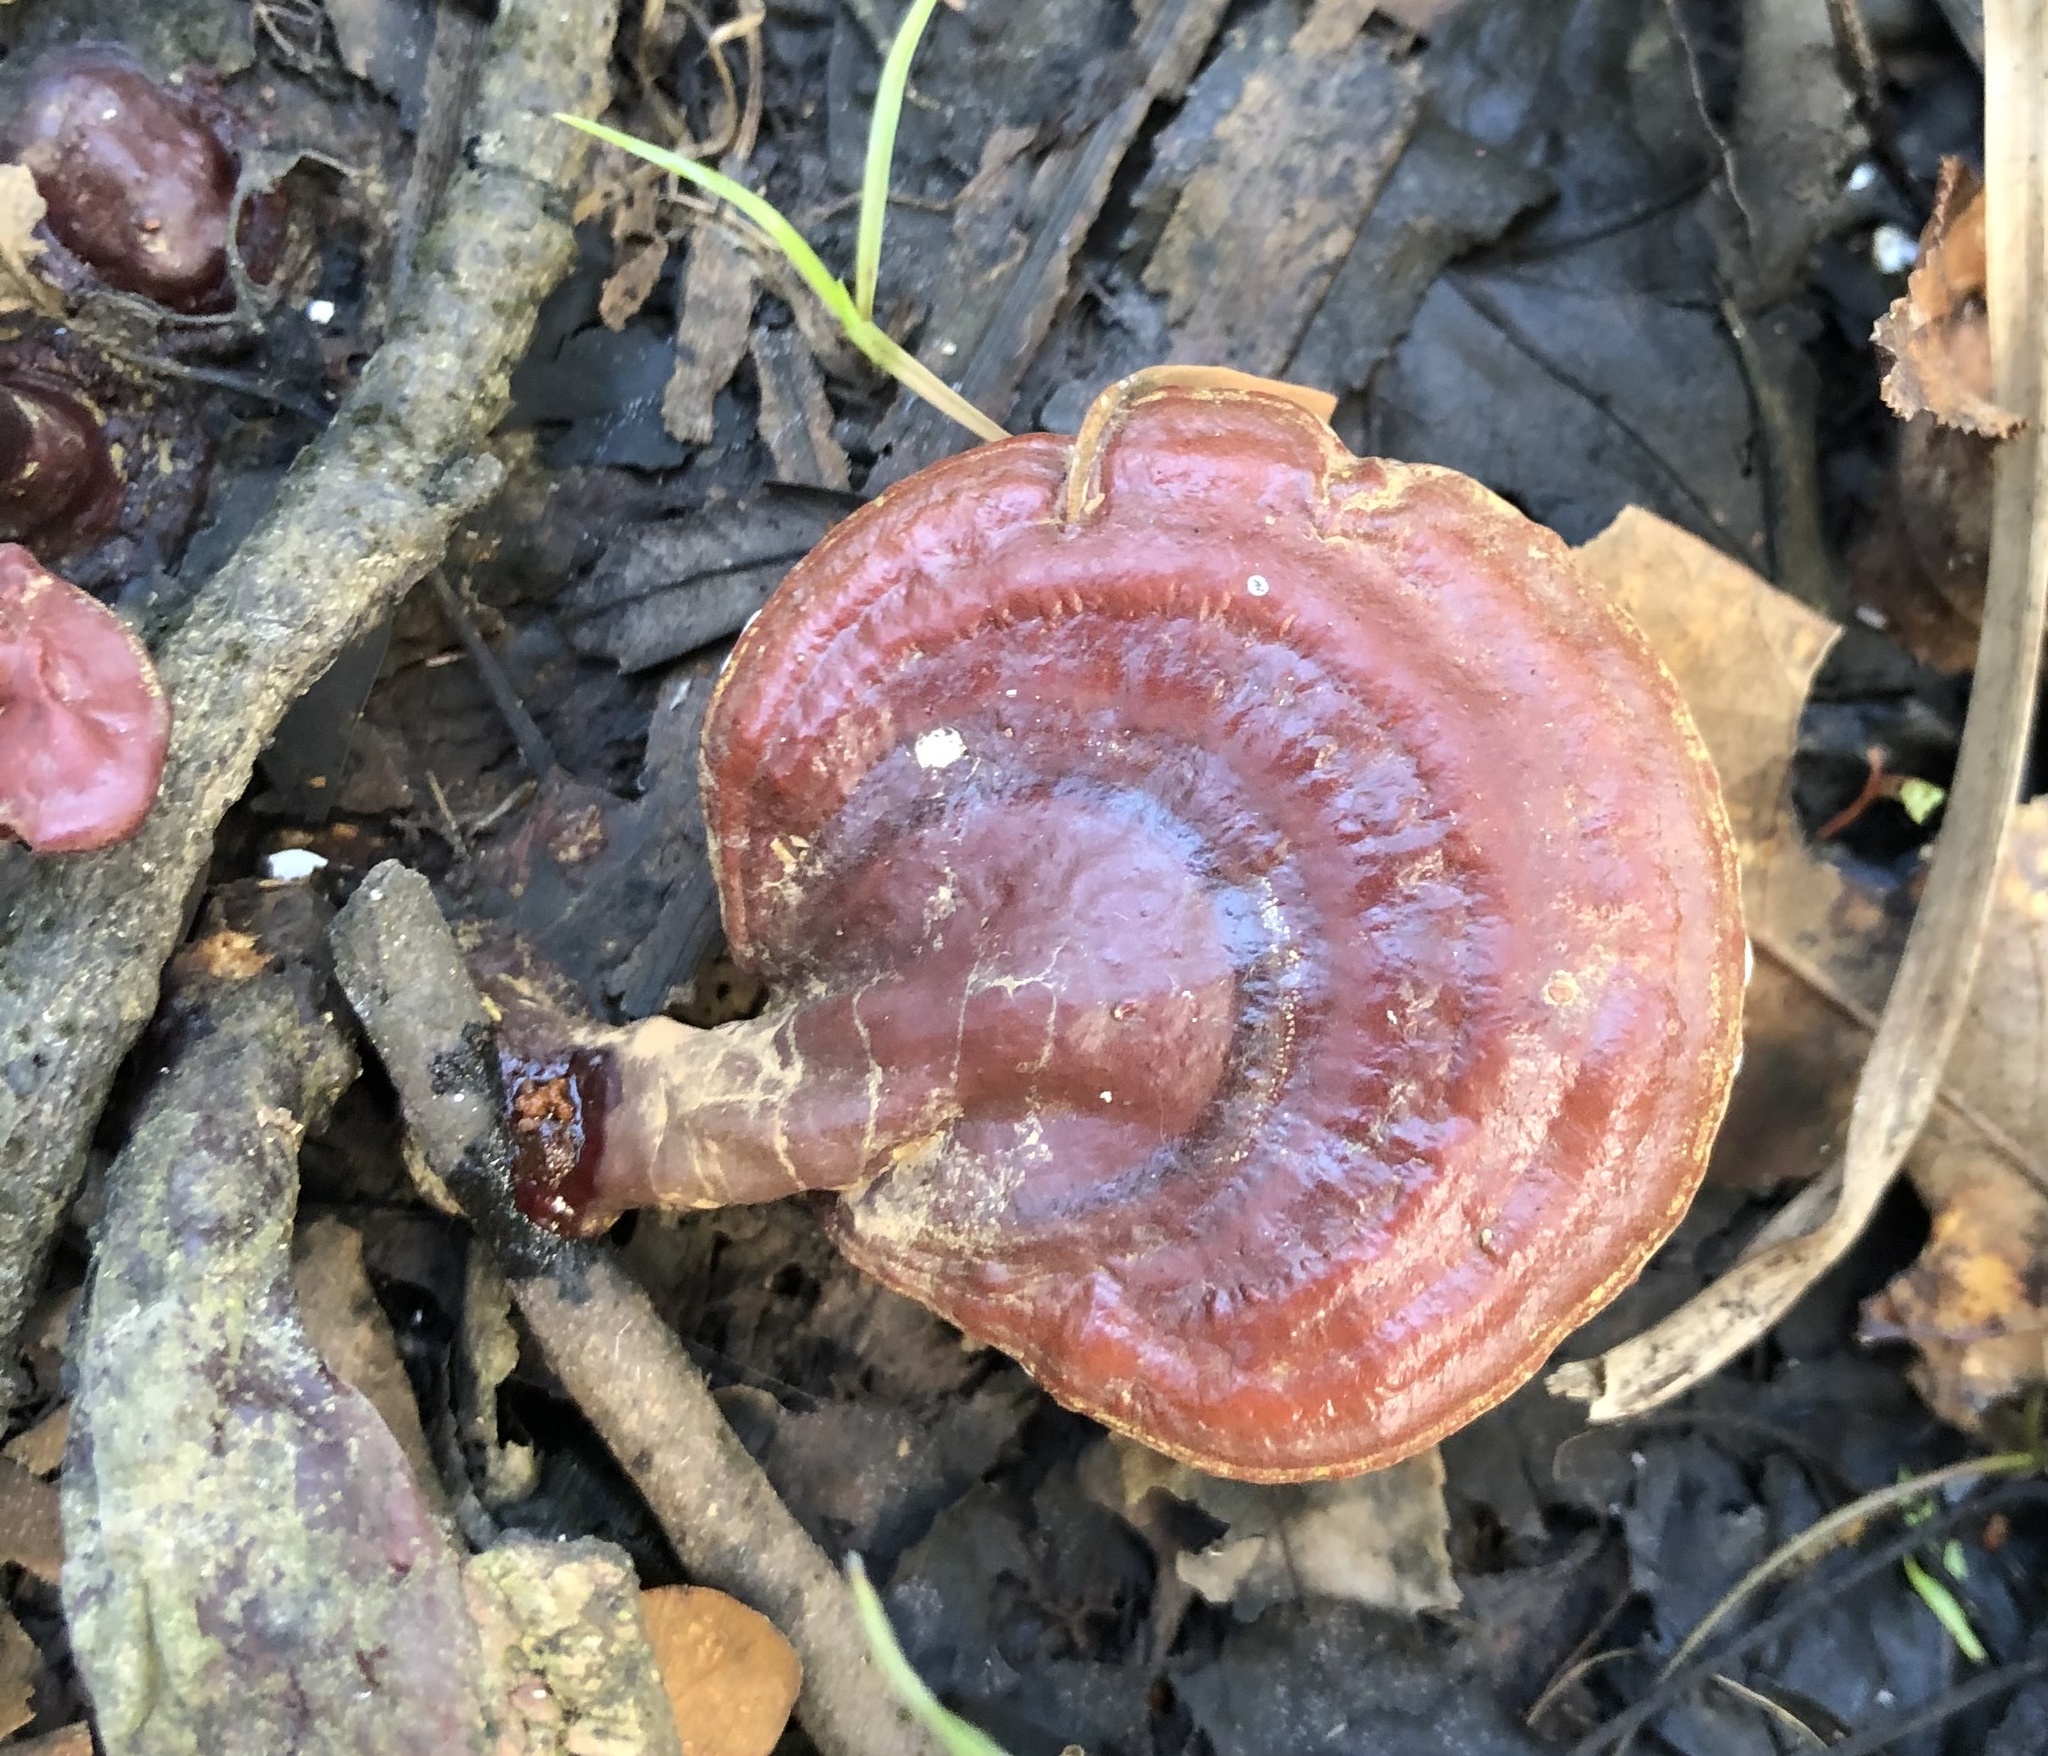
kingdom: Fungi
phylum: Basidiomycota
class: Agaricomycetes
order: Polyporales
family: Polyporaceae
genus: Ganoderma
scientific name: Ganoderma curtisii
